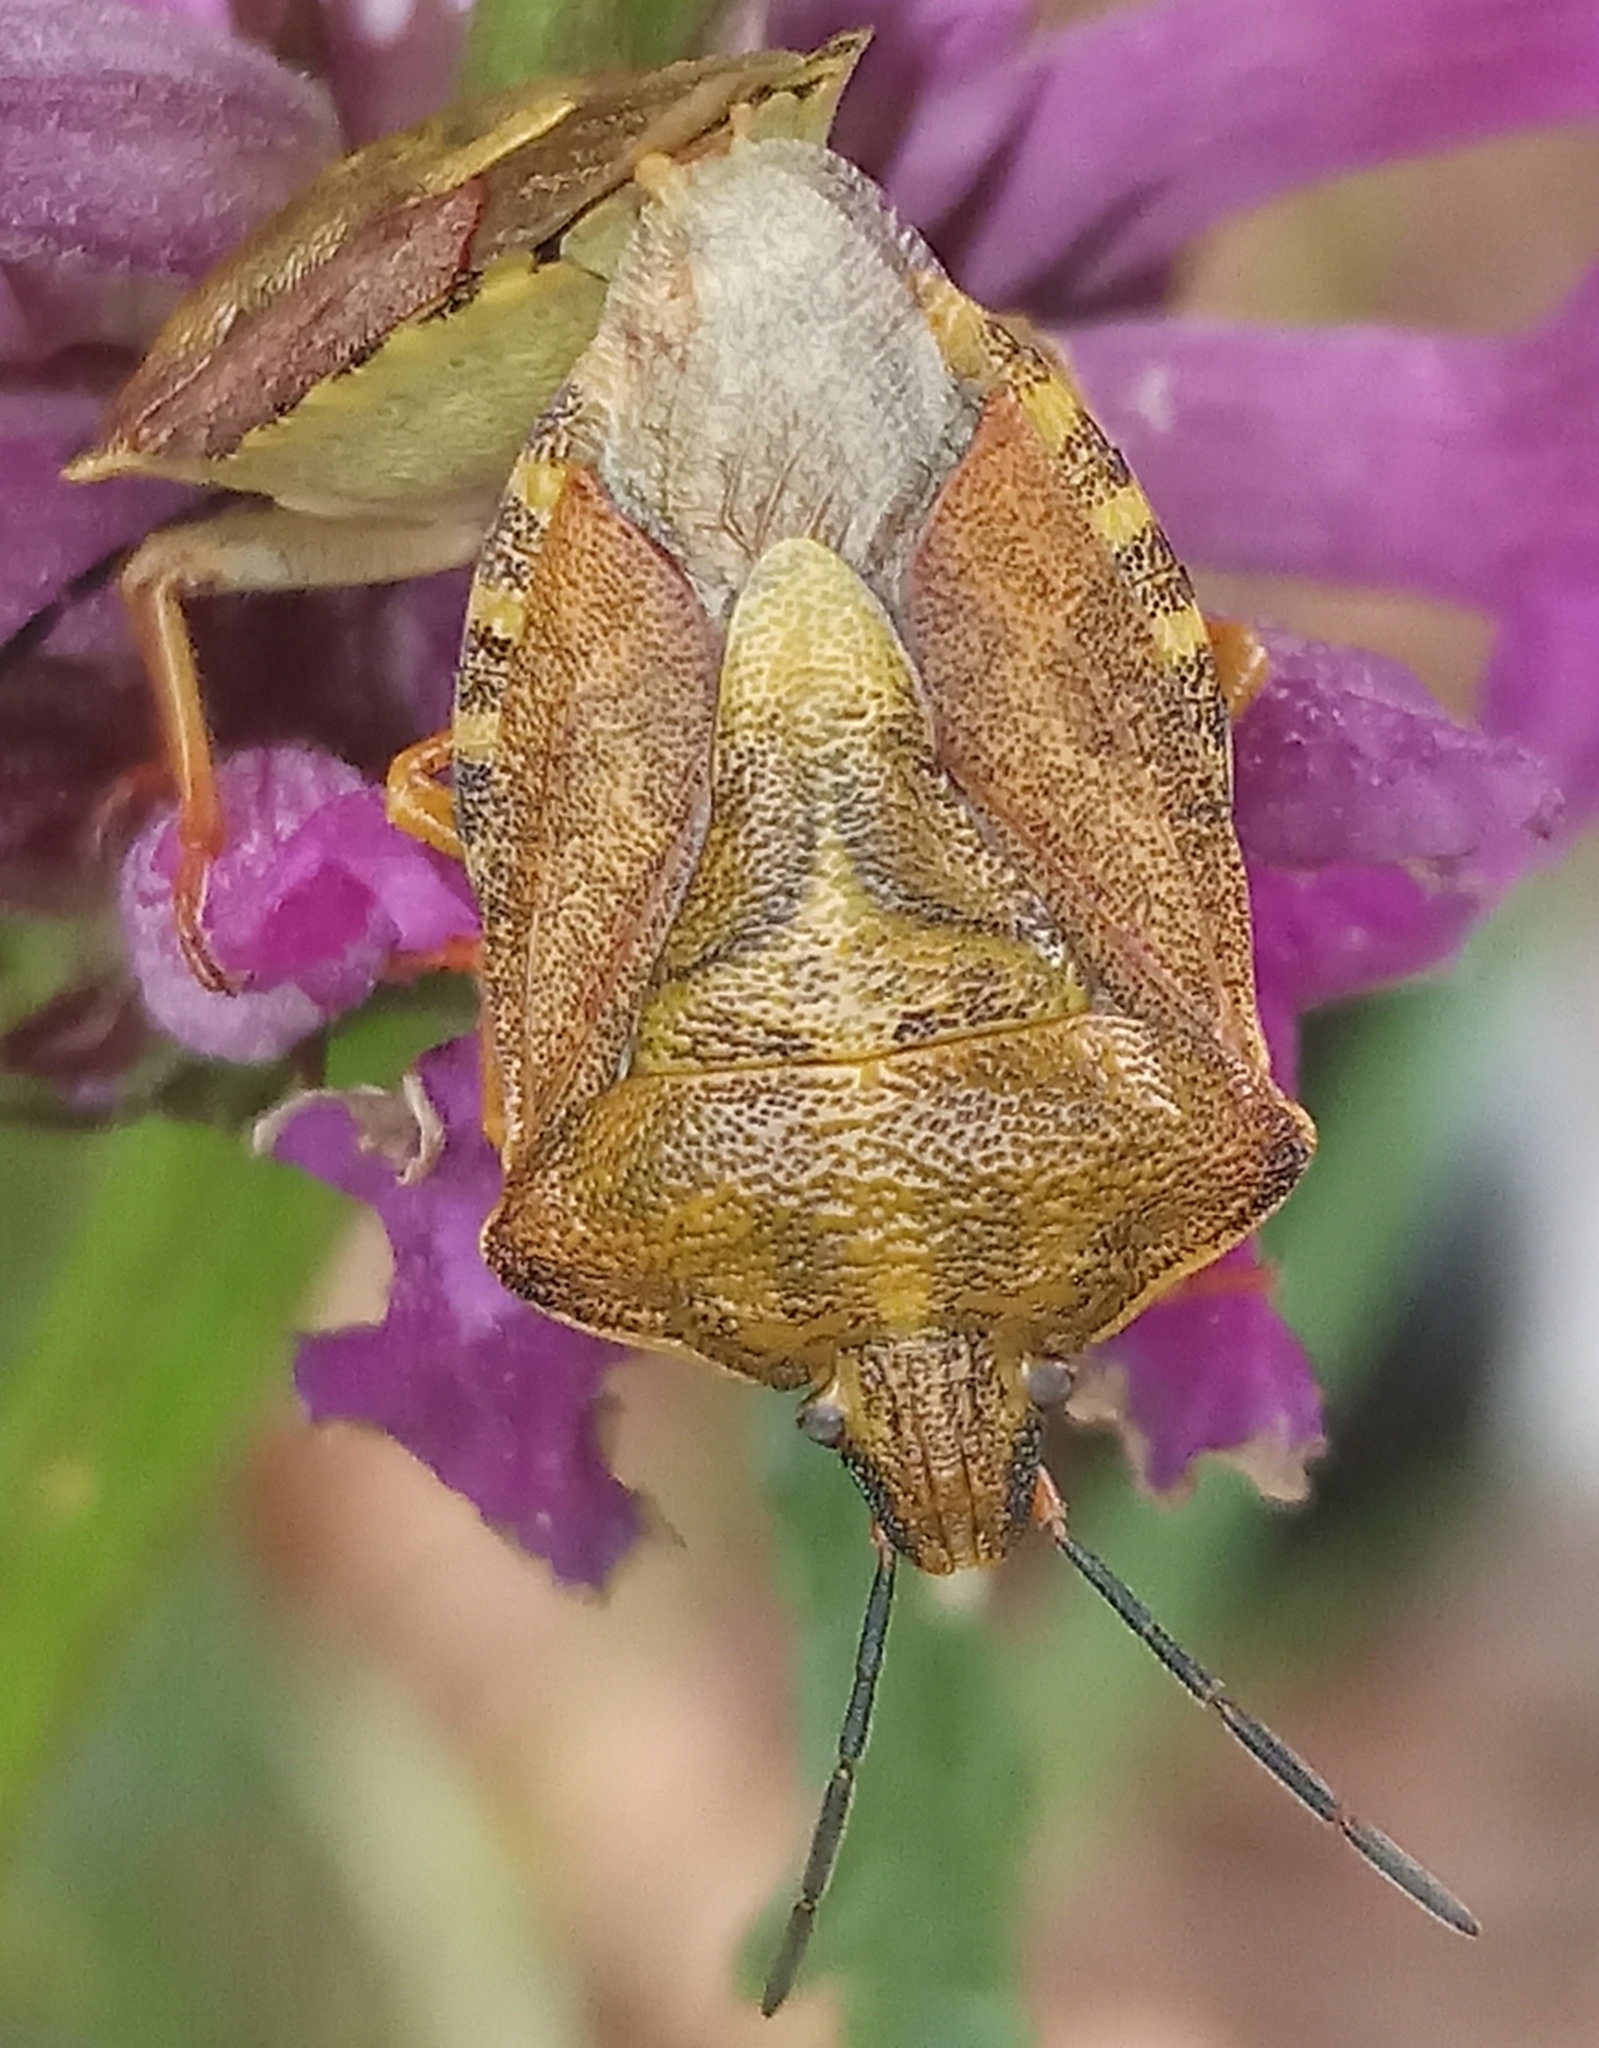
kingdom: Animalia
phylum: Arthropoda
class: Insecta
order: Hemiptera
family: Pentatomidae
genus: Carpocoris
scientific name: Carpocoris purpureipennis
